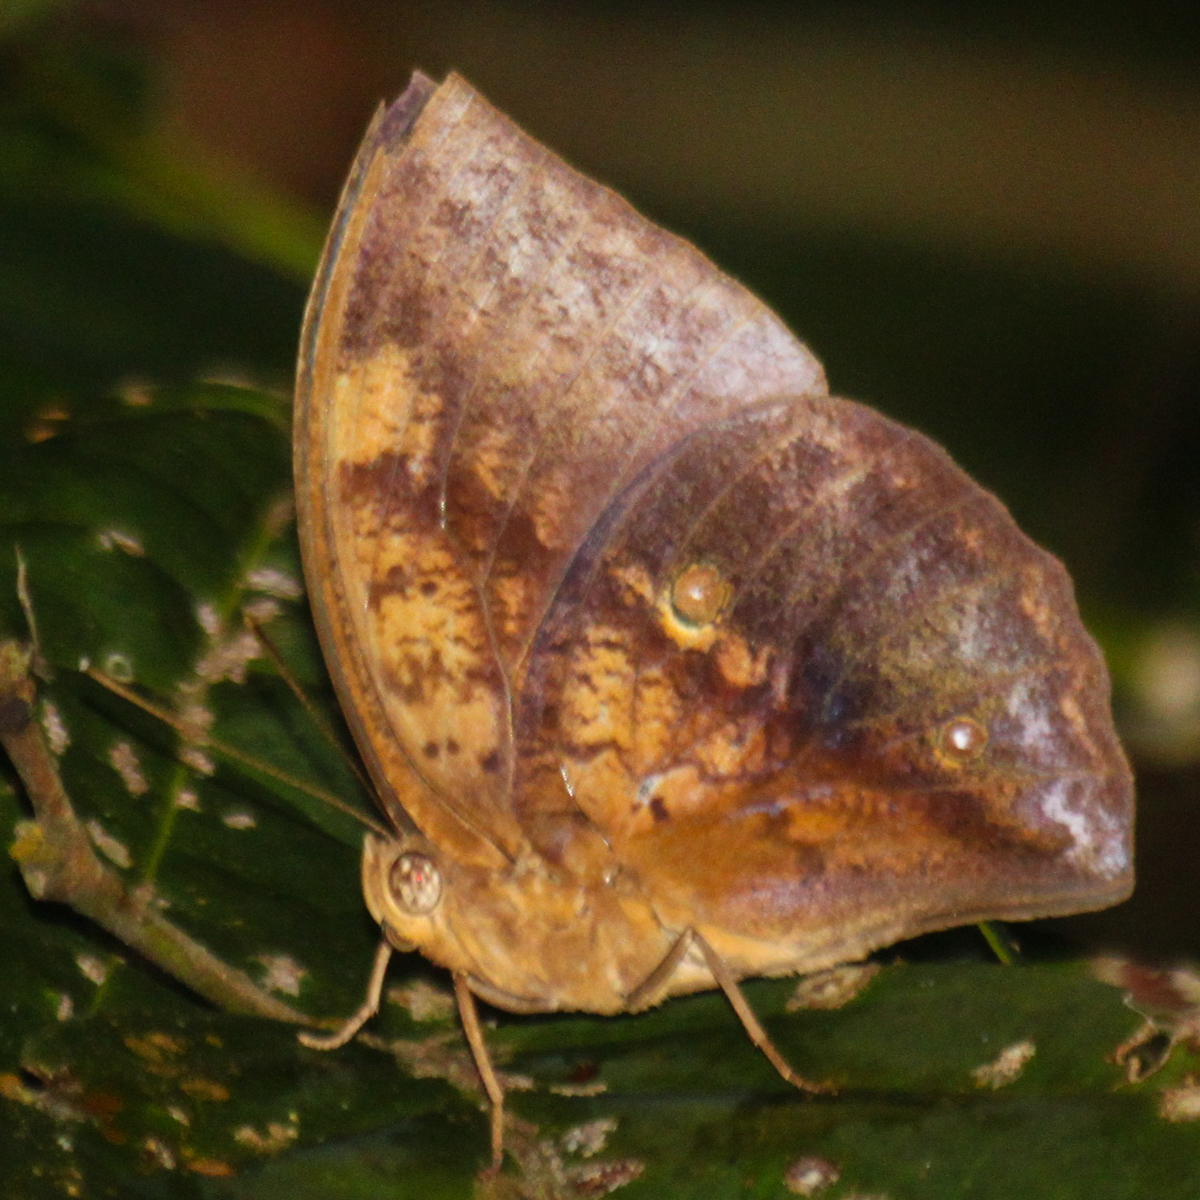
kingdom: Animalia
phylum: Arthropoda
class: Insecta
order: Lepidoptera
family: Nymphalidae
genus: Discophora
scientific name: Discophora timora
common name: Great duffer
